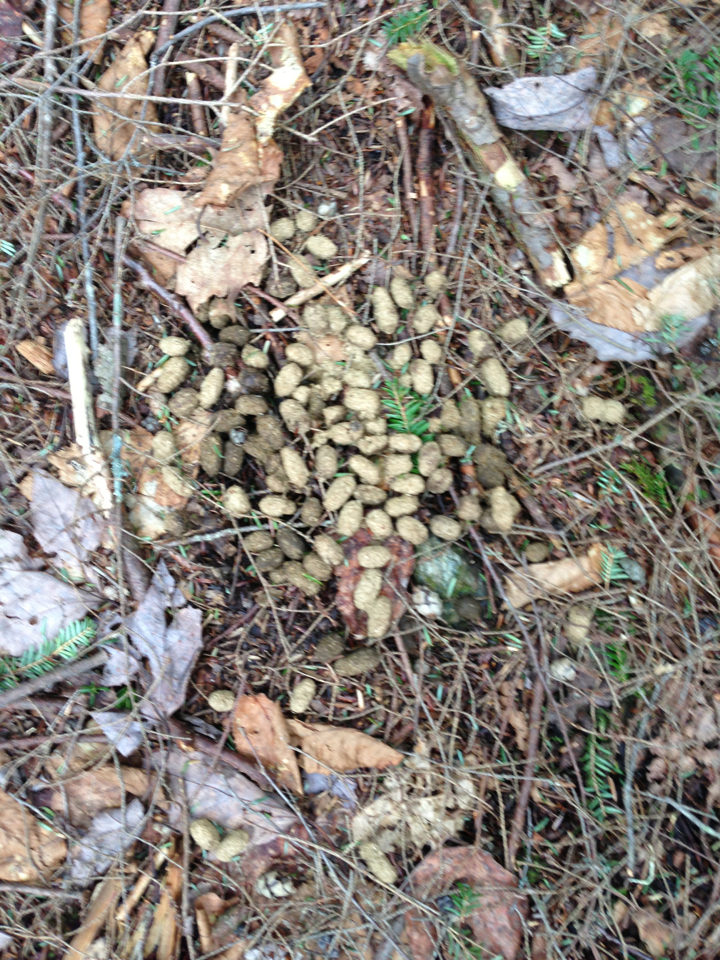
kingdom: Animalia
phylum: Chordata
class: Mammalia
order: Artiodactyla
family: Cervidae
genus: Odocoileus
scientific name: Odocoileus virginianus
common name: White-tailed deer
